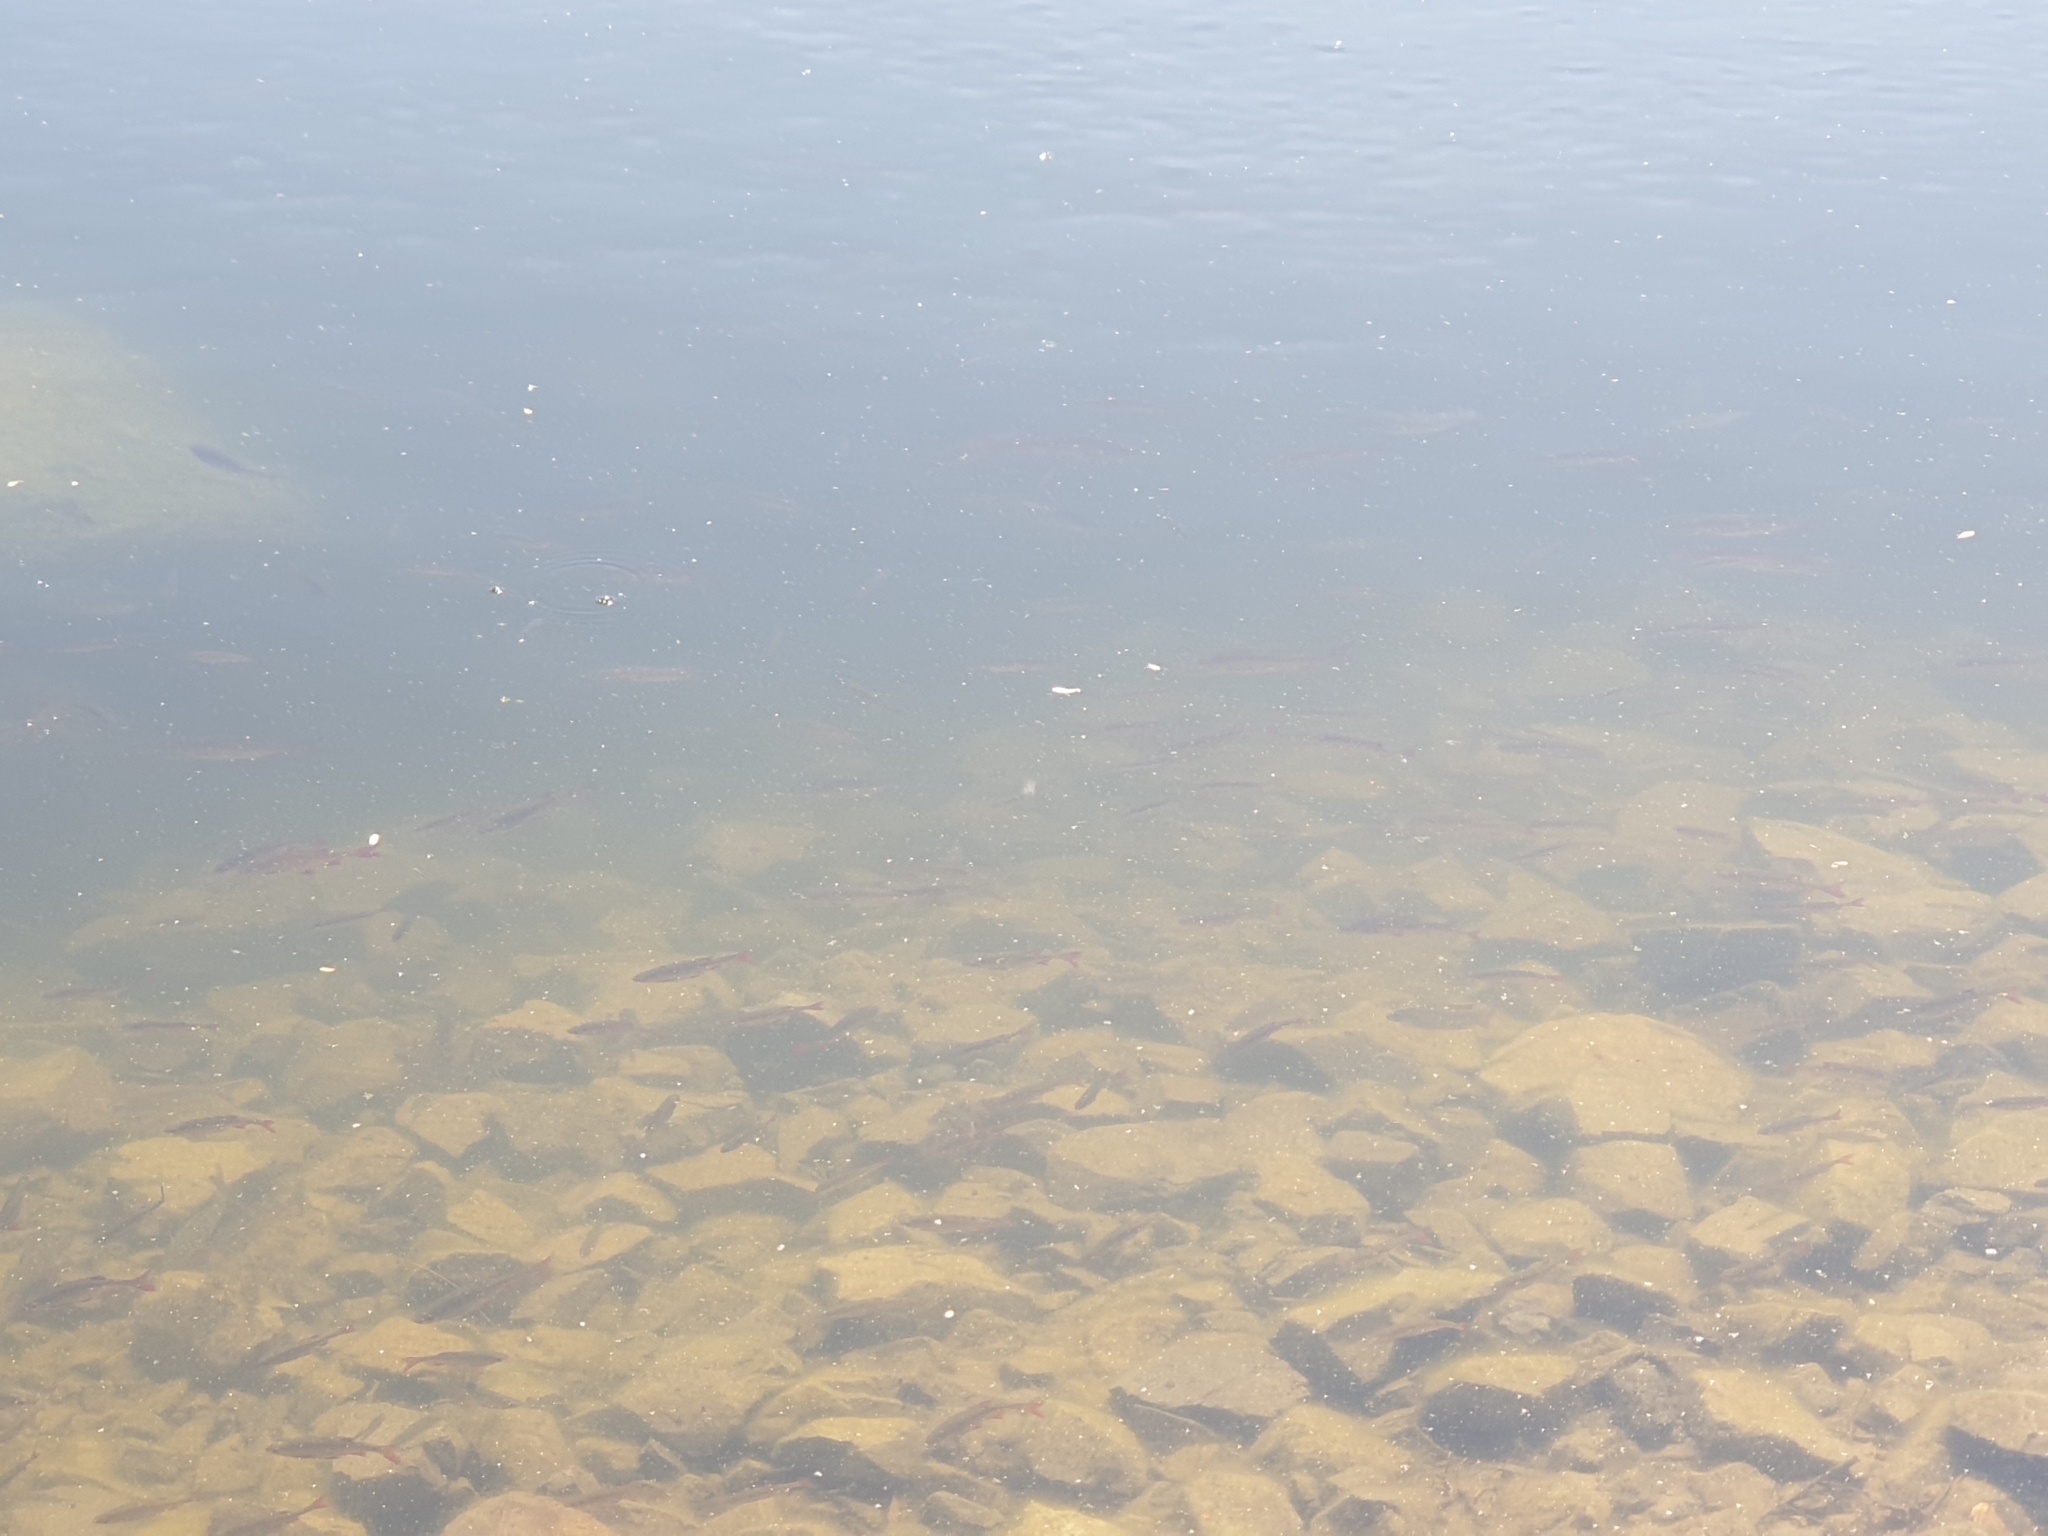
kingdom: Animalia
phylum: Chordata
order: Cypriniformes
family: Cyprinidae
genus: Scardinius
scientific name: Scardinius erythrophthalmus
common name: Rudd
